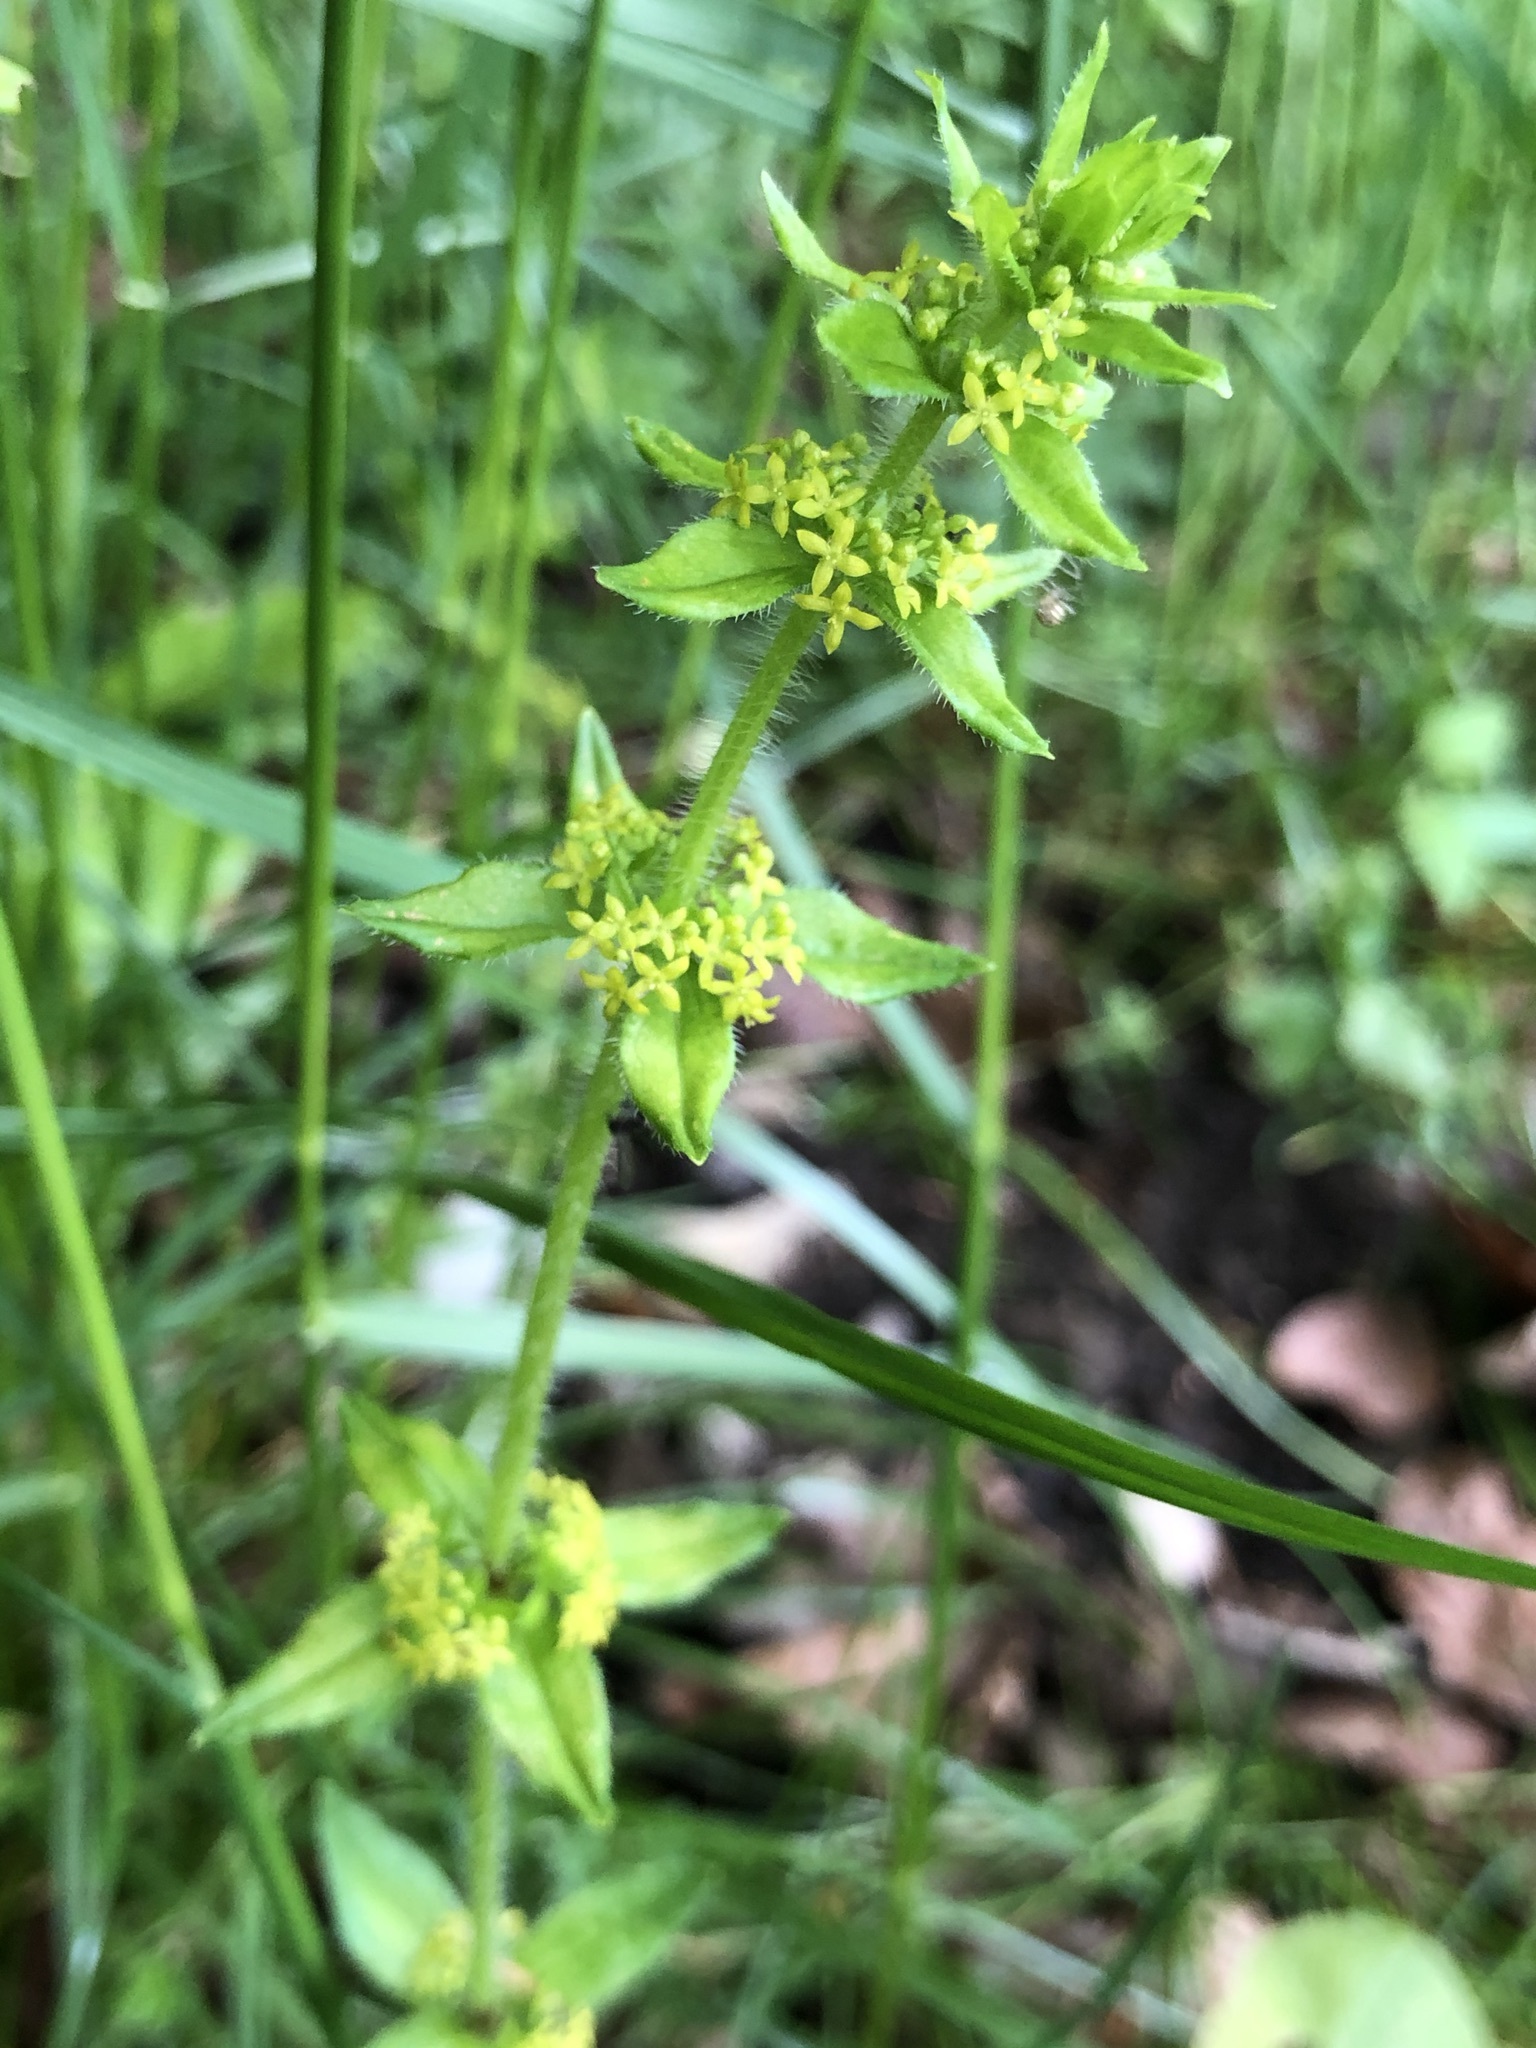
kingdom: Plantae
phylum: Tracheophyta
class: Magnoliopsida
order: Gentianales
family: Rubiaceae
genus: Cruciata
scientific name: Cruciata laevipes
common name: Crosswort
